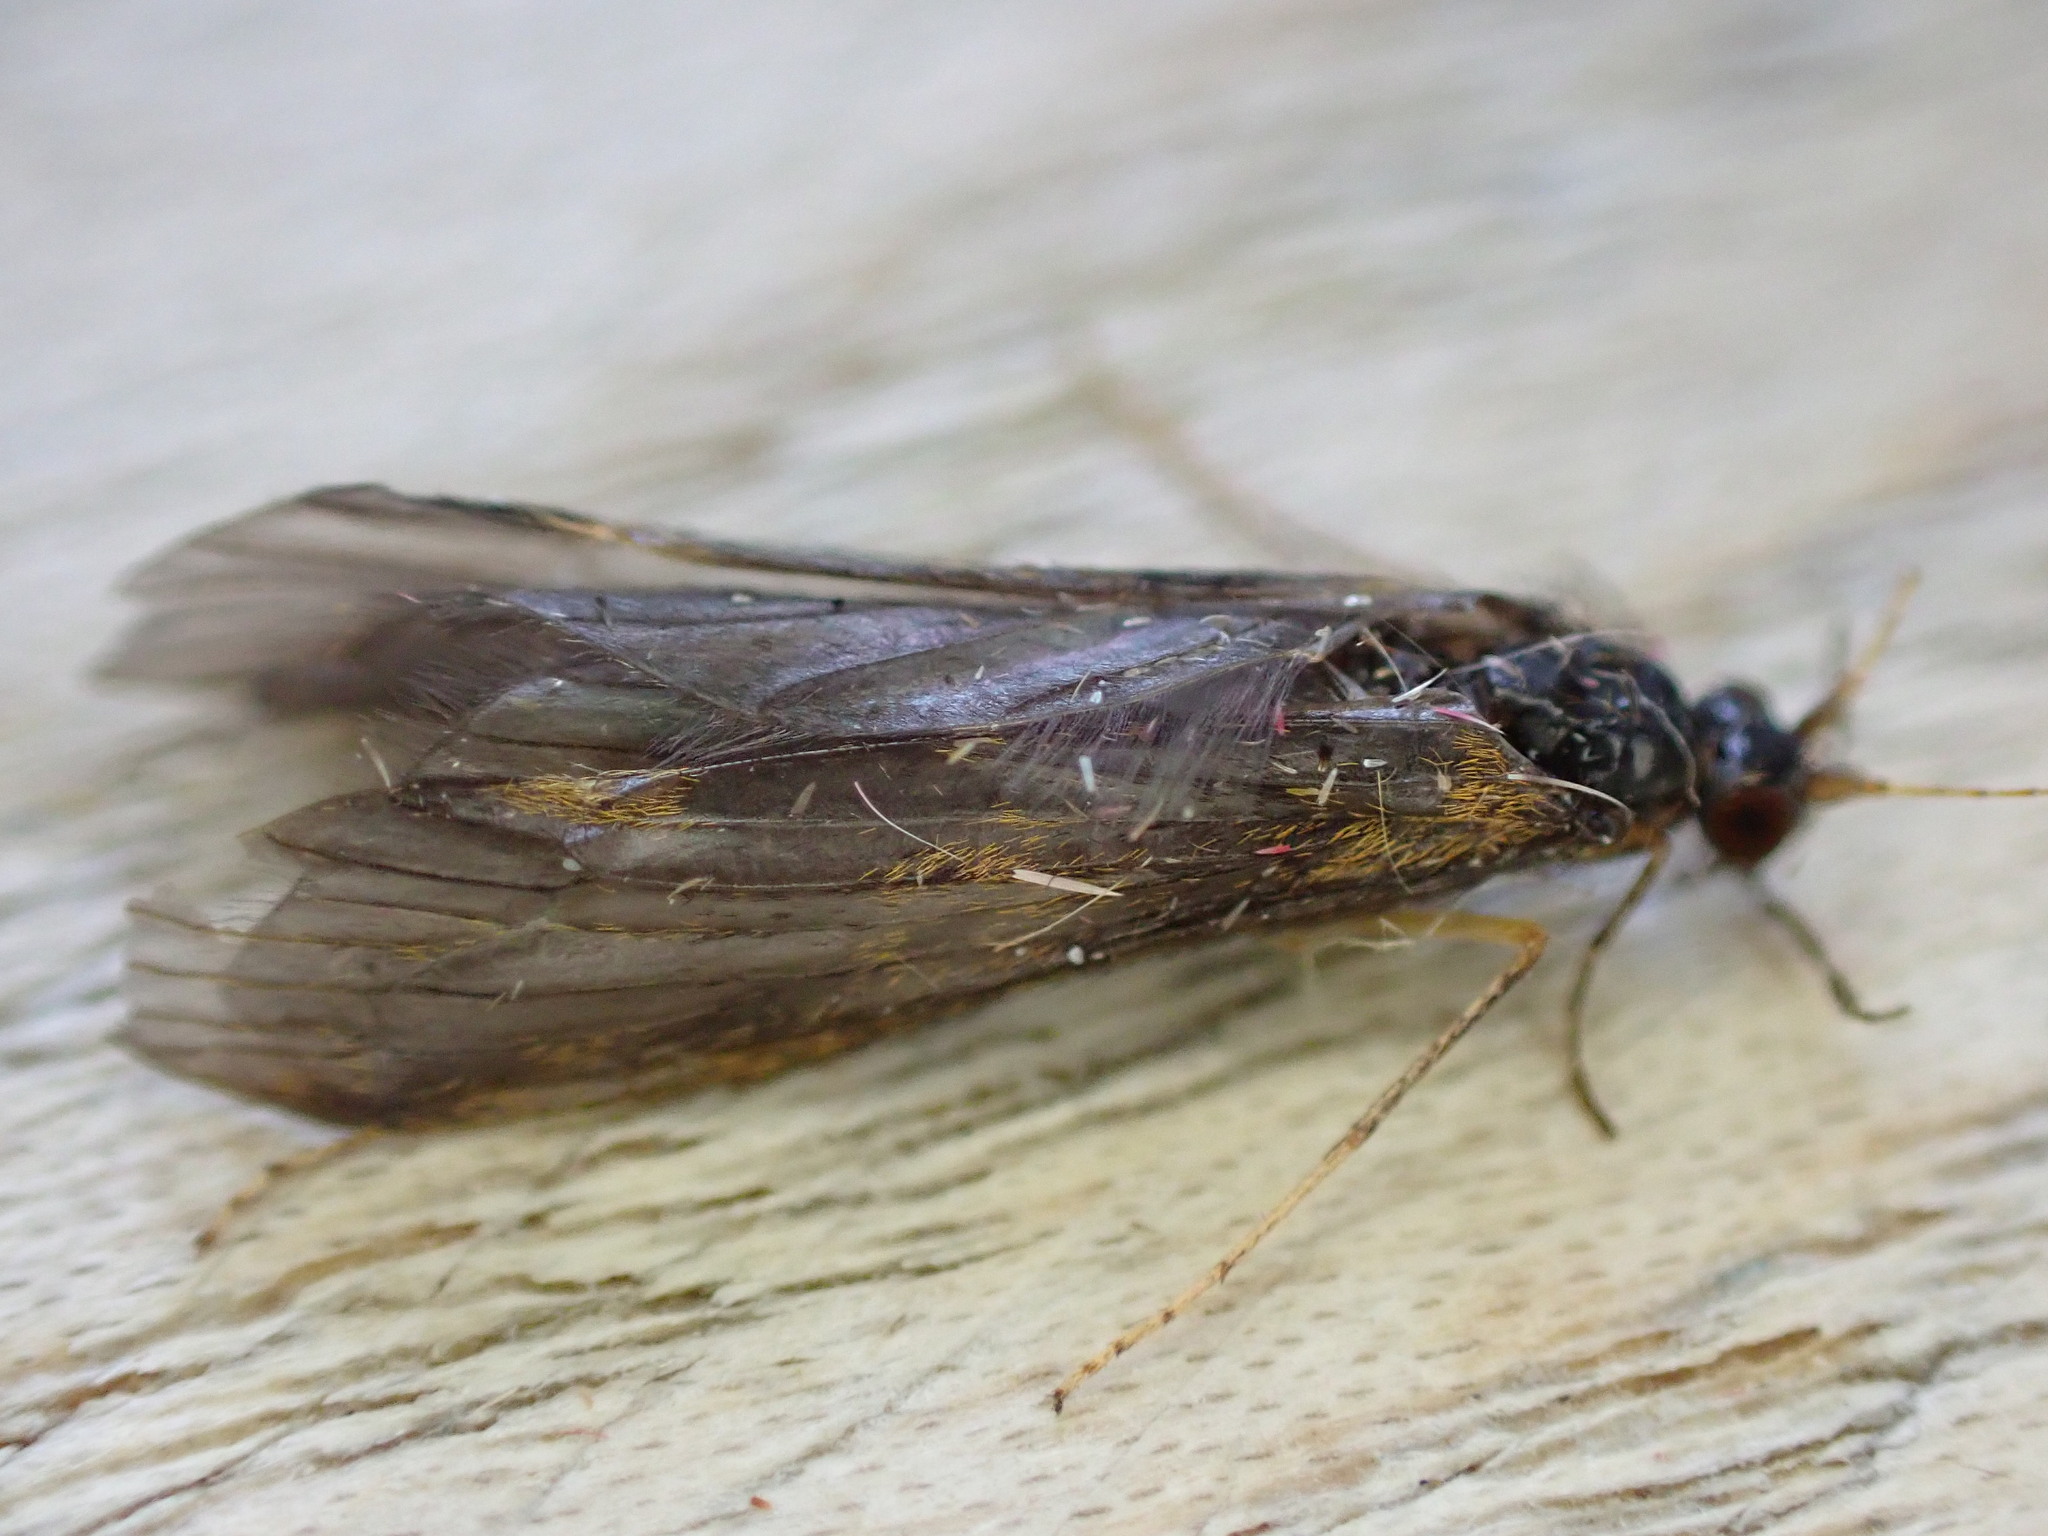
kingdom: Animalia
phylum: Arthropoda
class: Insecta
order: Trichoptera
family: Leptoceridae
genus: Mystacides
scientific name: Mystacides longicornis
